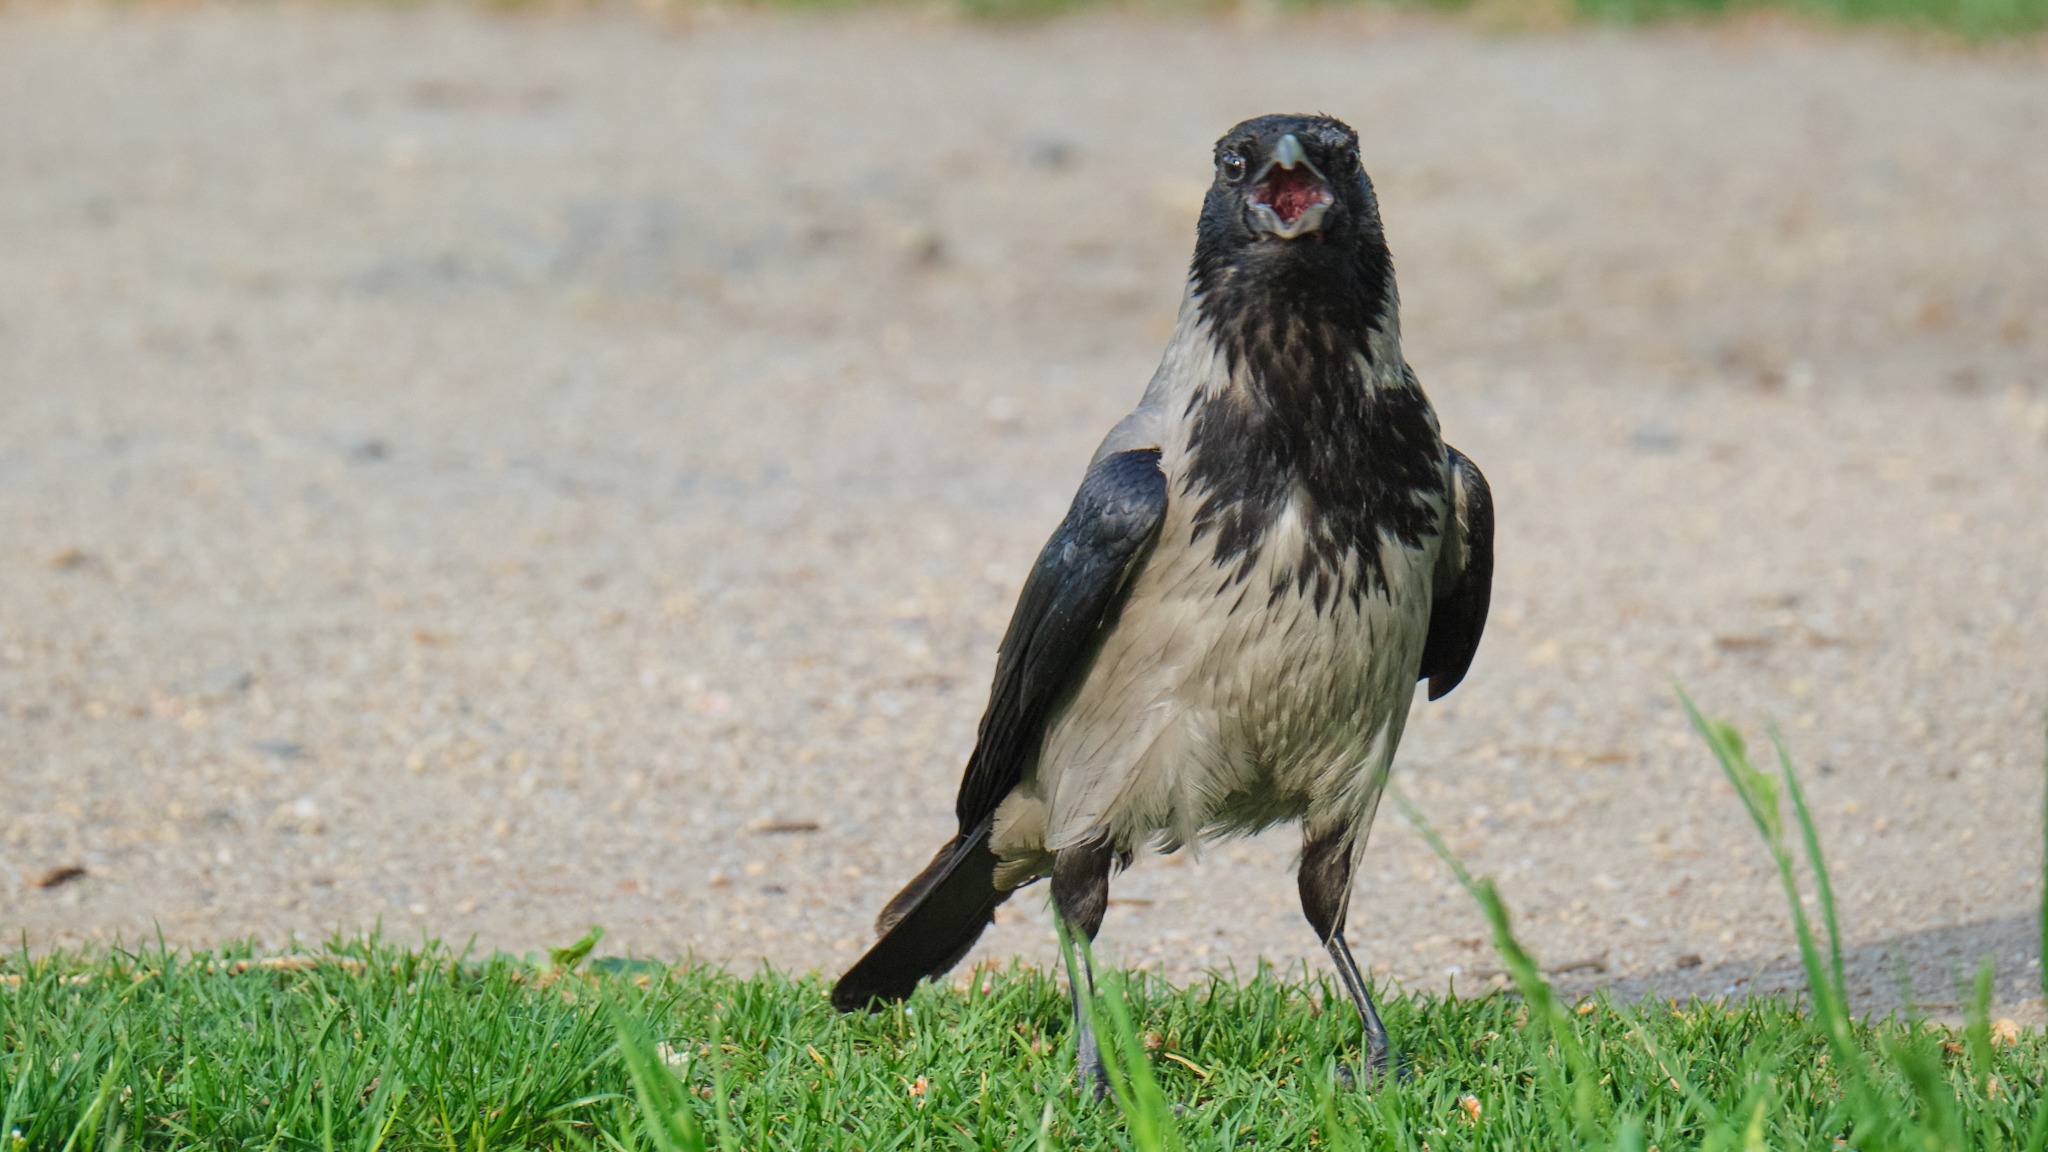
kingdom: Animalia
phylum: Chordata
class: Aves
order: Passeriformes
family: Corvidae
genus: Corvus
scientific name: Corvus cornix
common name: Hooded crow
